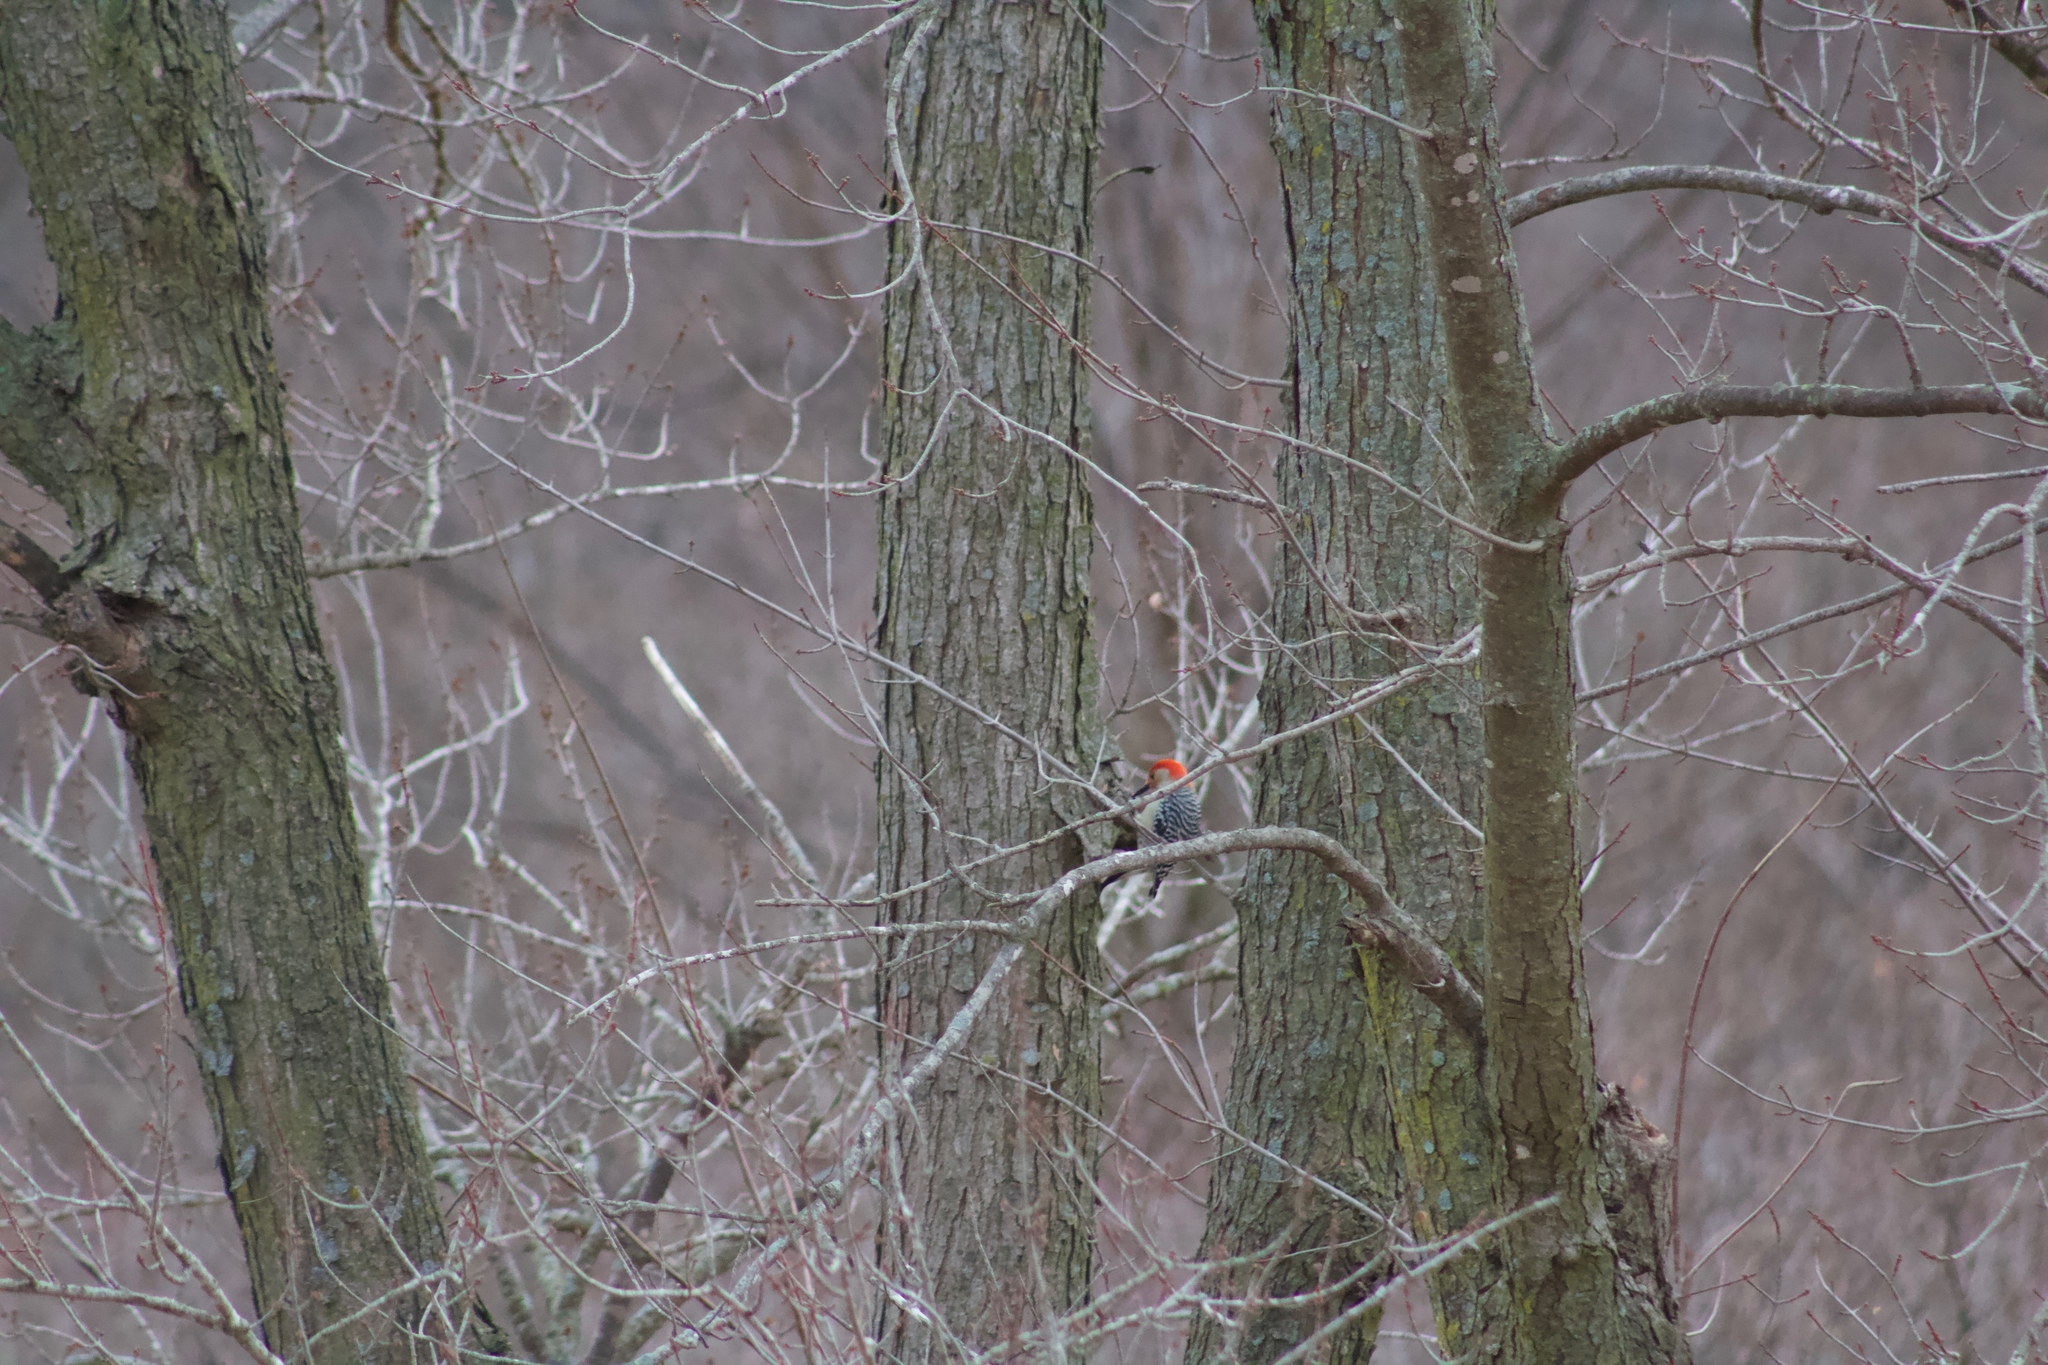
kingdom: Animalia
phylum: Chordata
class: Aves
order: Piciformes
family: Picidae
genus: Melanerpes
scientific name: Melanerpes carolinus
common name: Red-bellied woodpecker
